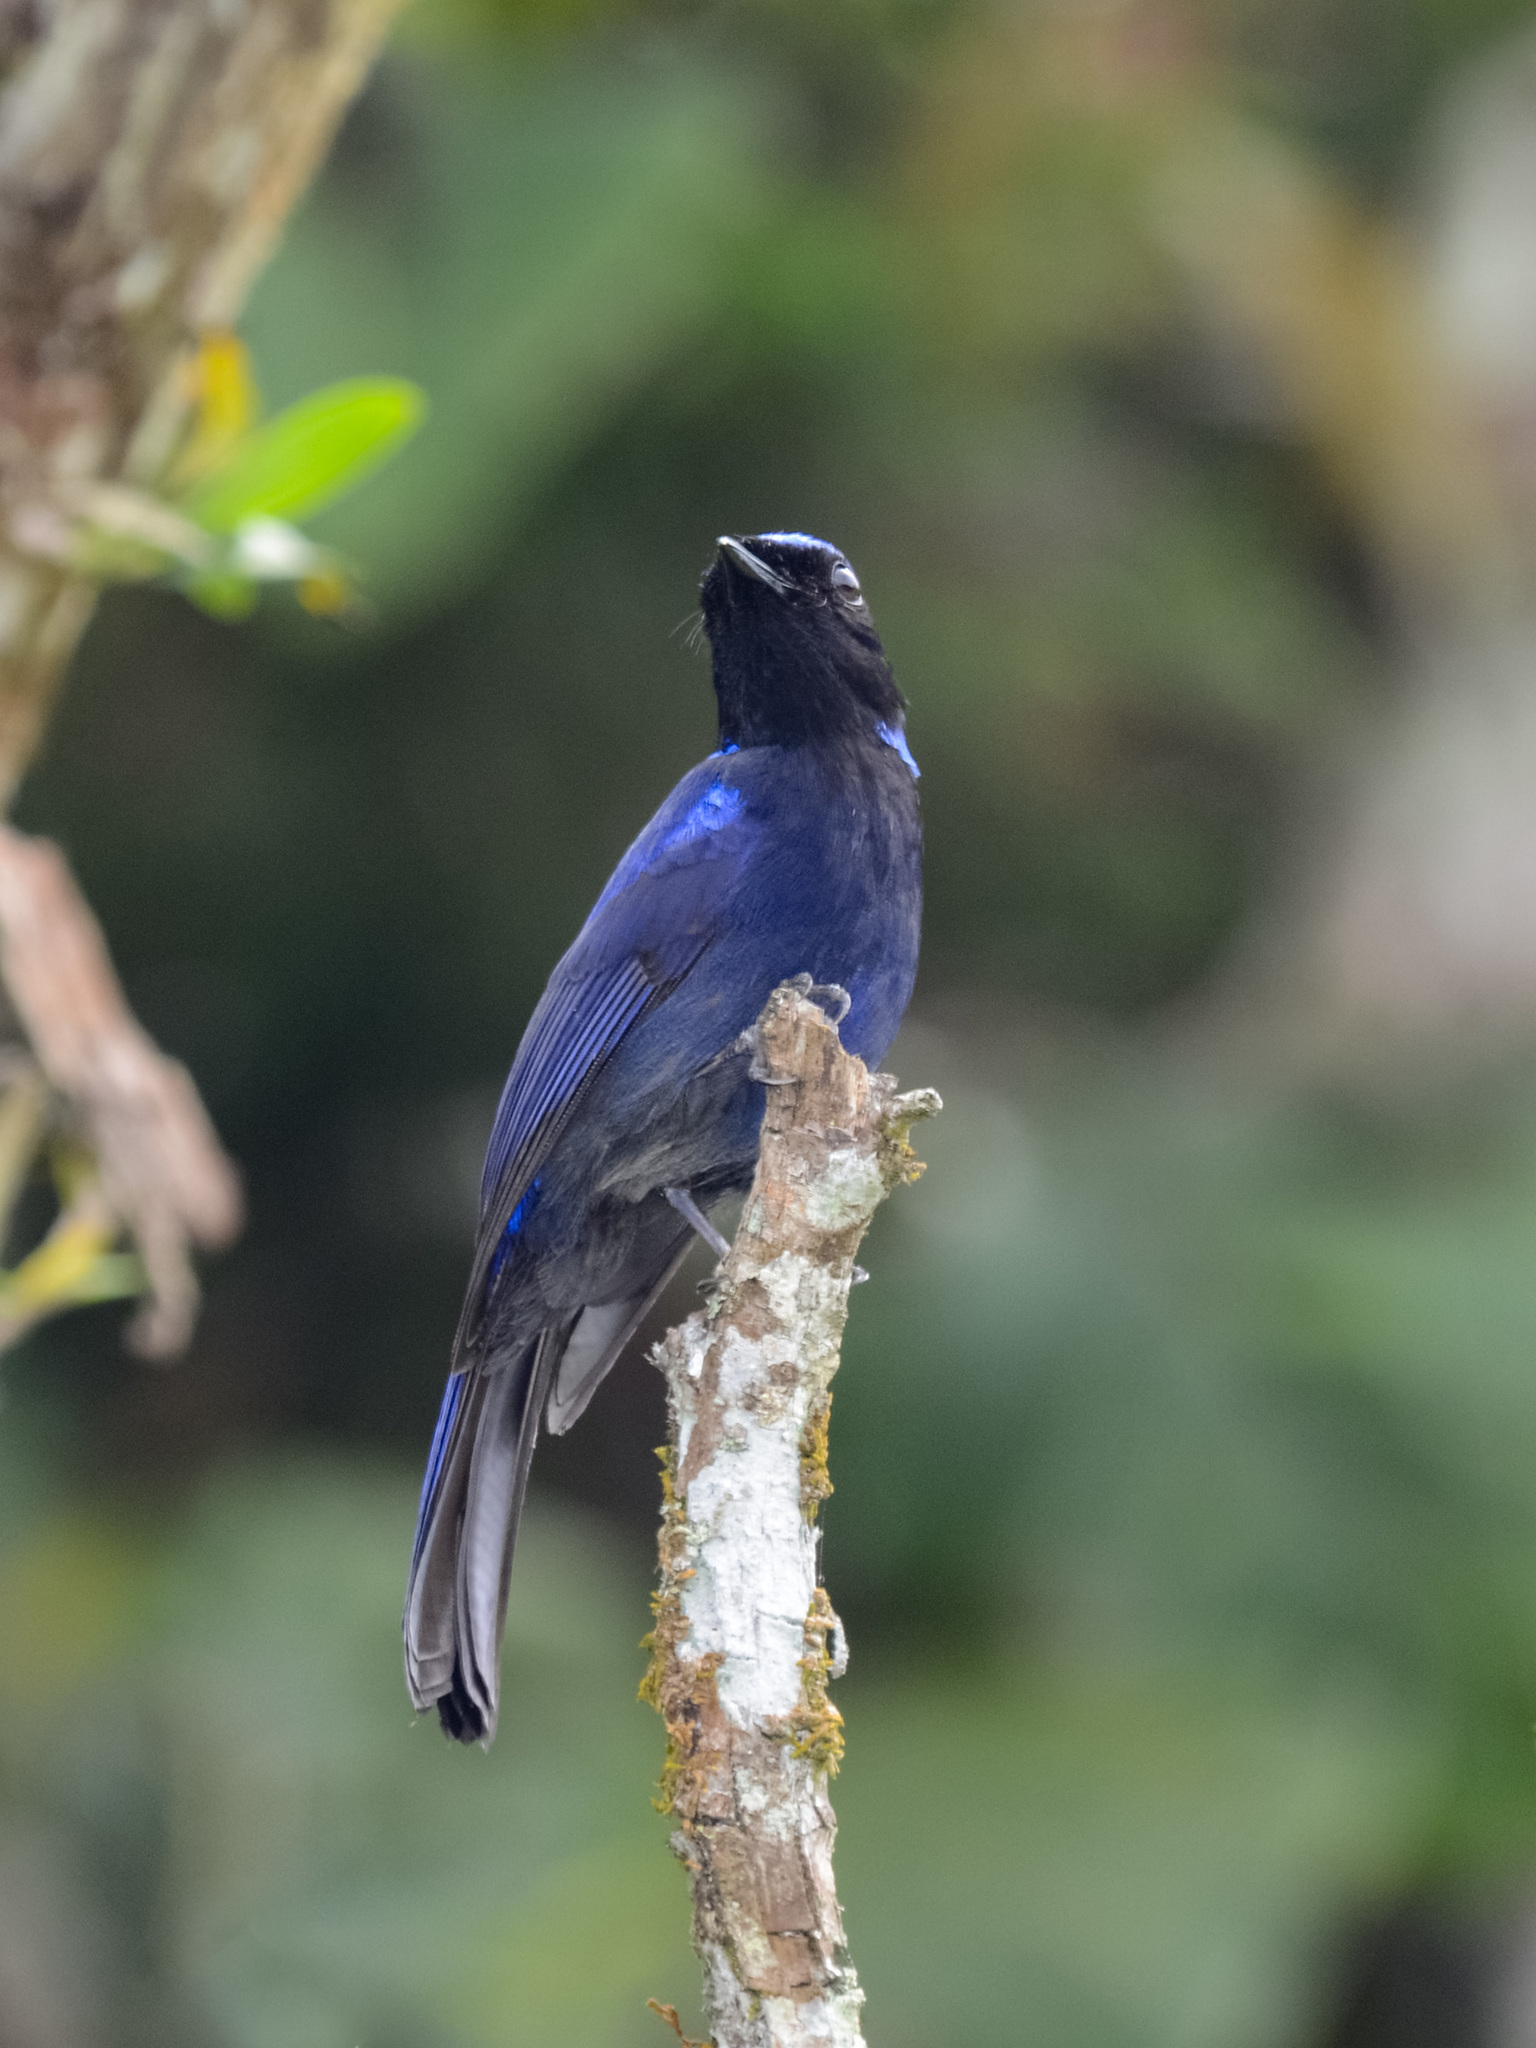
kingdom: Animalia
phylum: Chordata
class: Aves
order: Passeriformes
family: Muscicapidae
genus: Niltava
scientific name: Niltava grandis
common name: Large niltava
